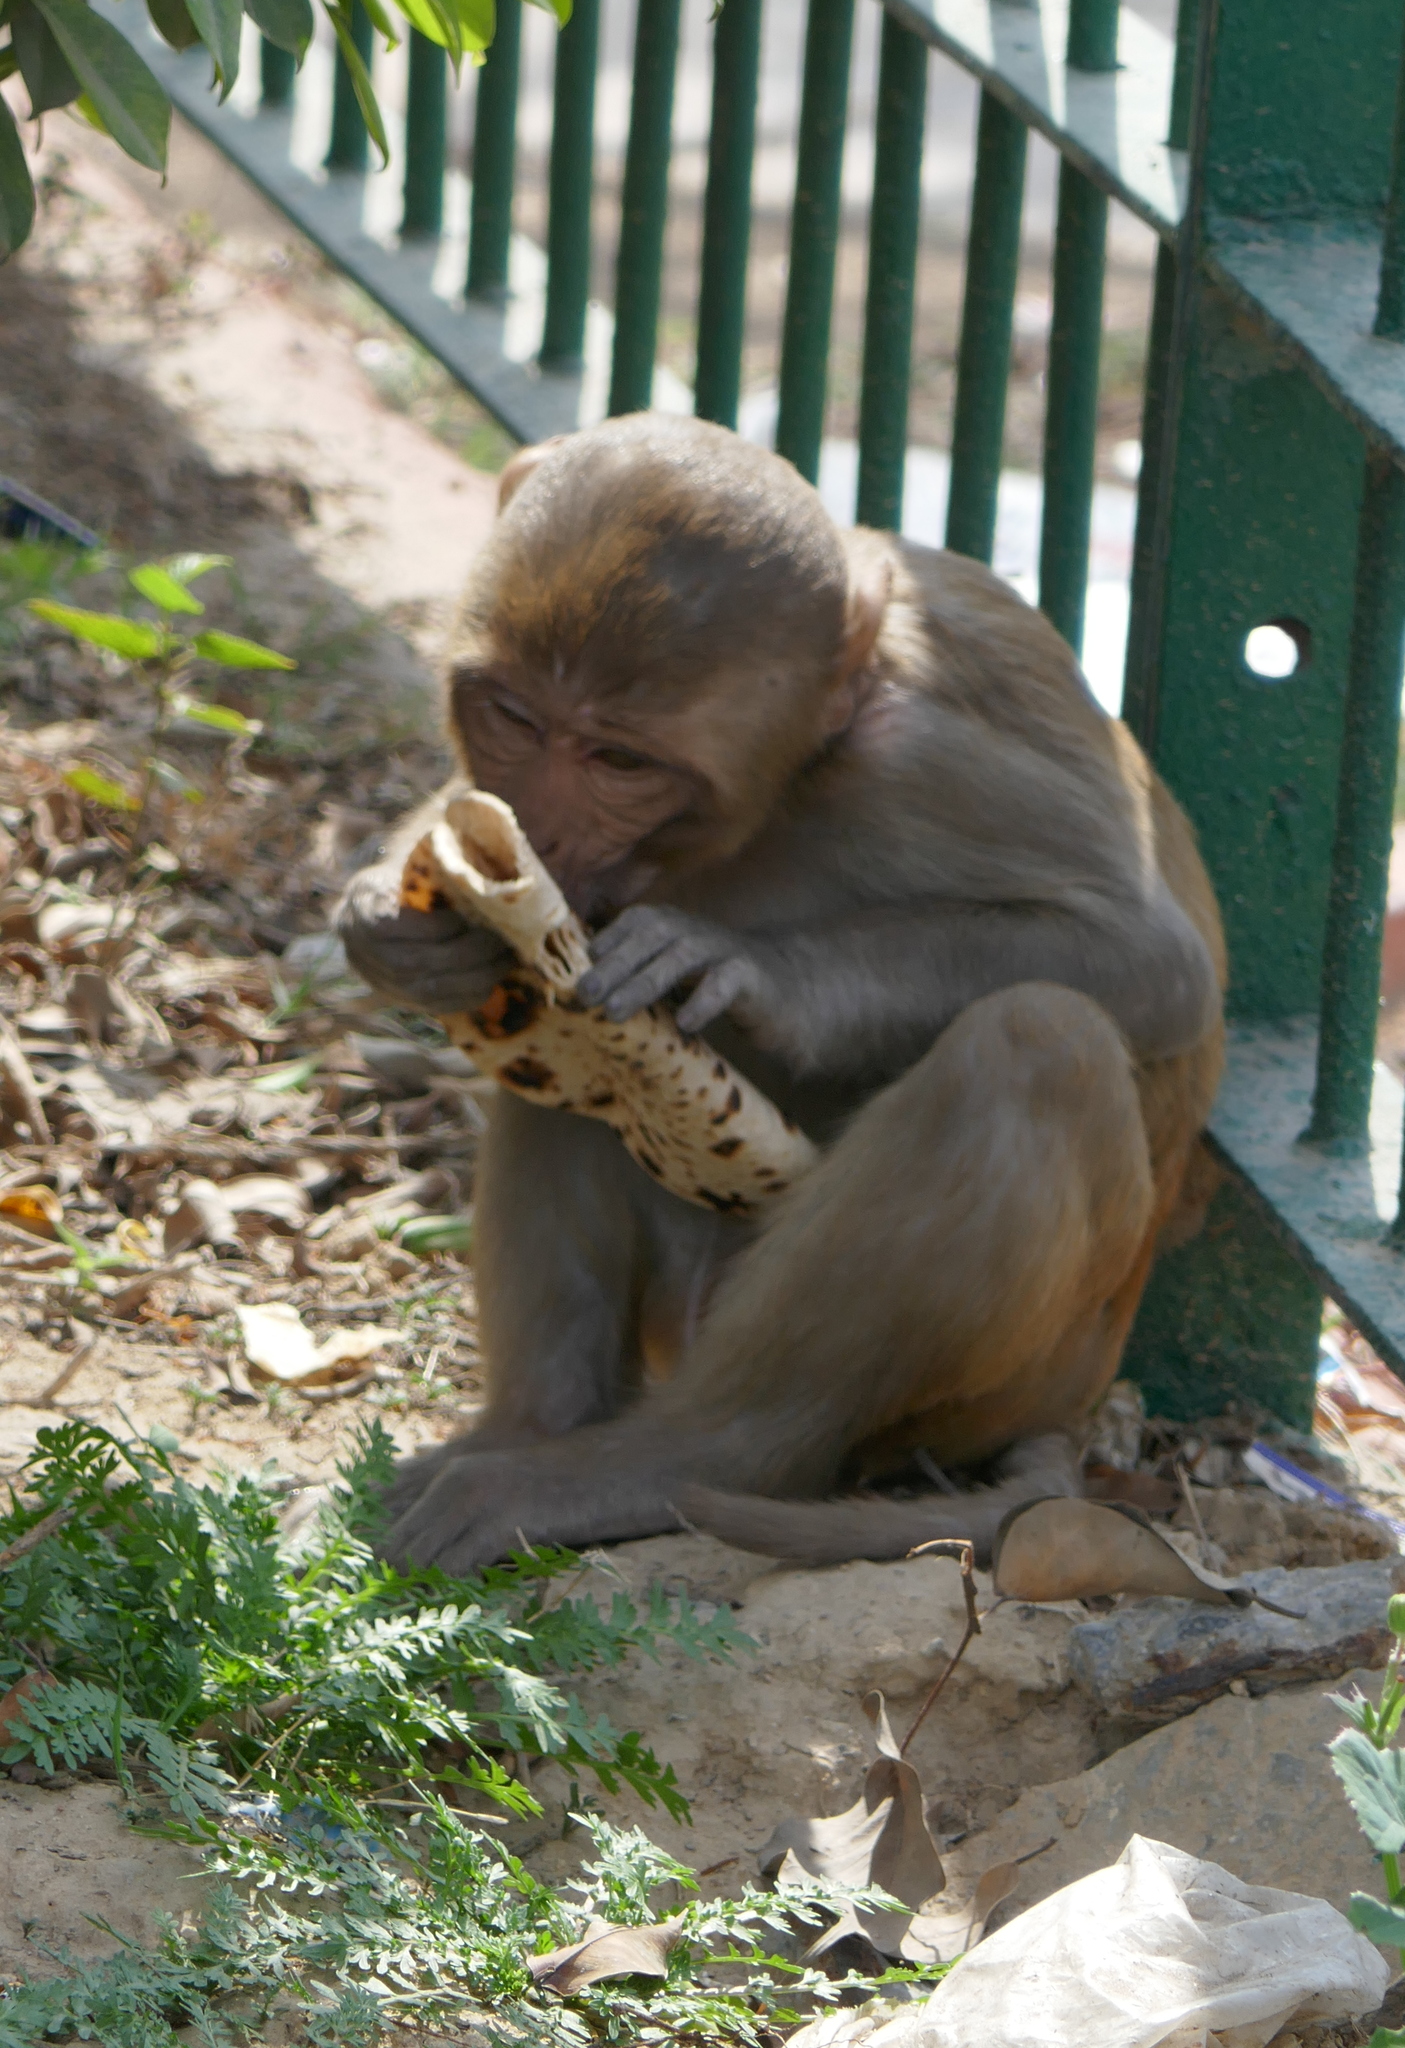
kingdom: Animalia
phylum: Chordata
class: Mammalia
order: Primates
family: Cercopithecidae
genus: Macaca
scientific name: Macaca mulatta
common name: Rhesus monkey
